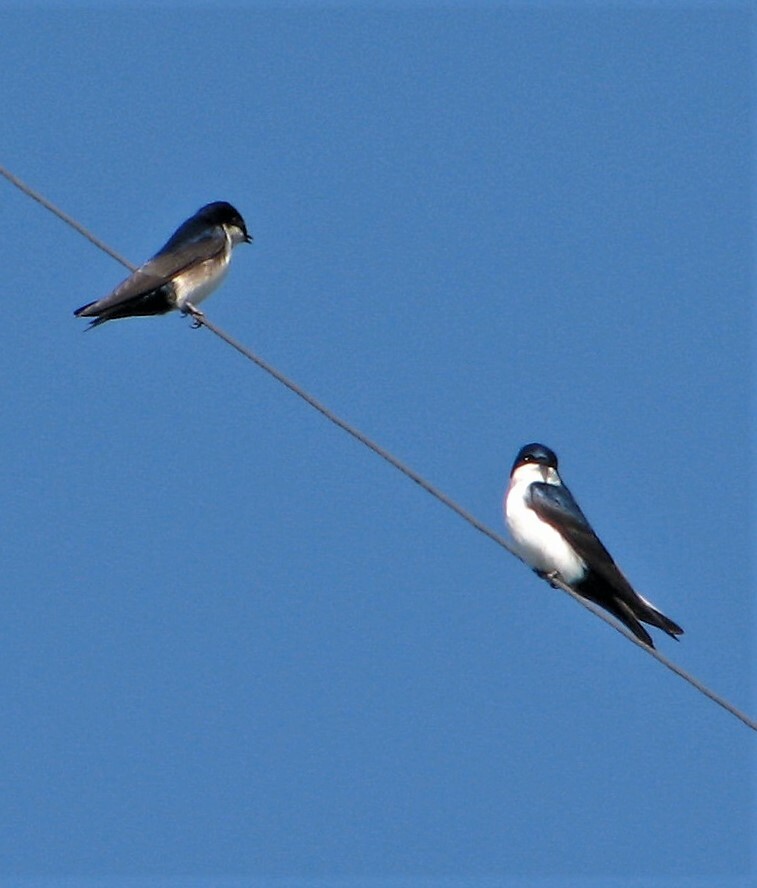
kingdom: Animalia
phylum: Chordata
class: Aves
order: Passeriformes
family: Hirundinidae
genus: Notiochelidon
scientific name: Notiochelidon cyanoleuca
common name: Blue-and-white swallow
